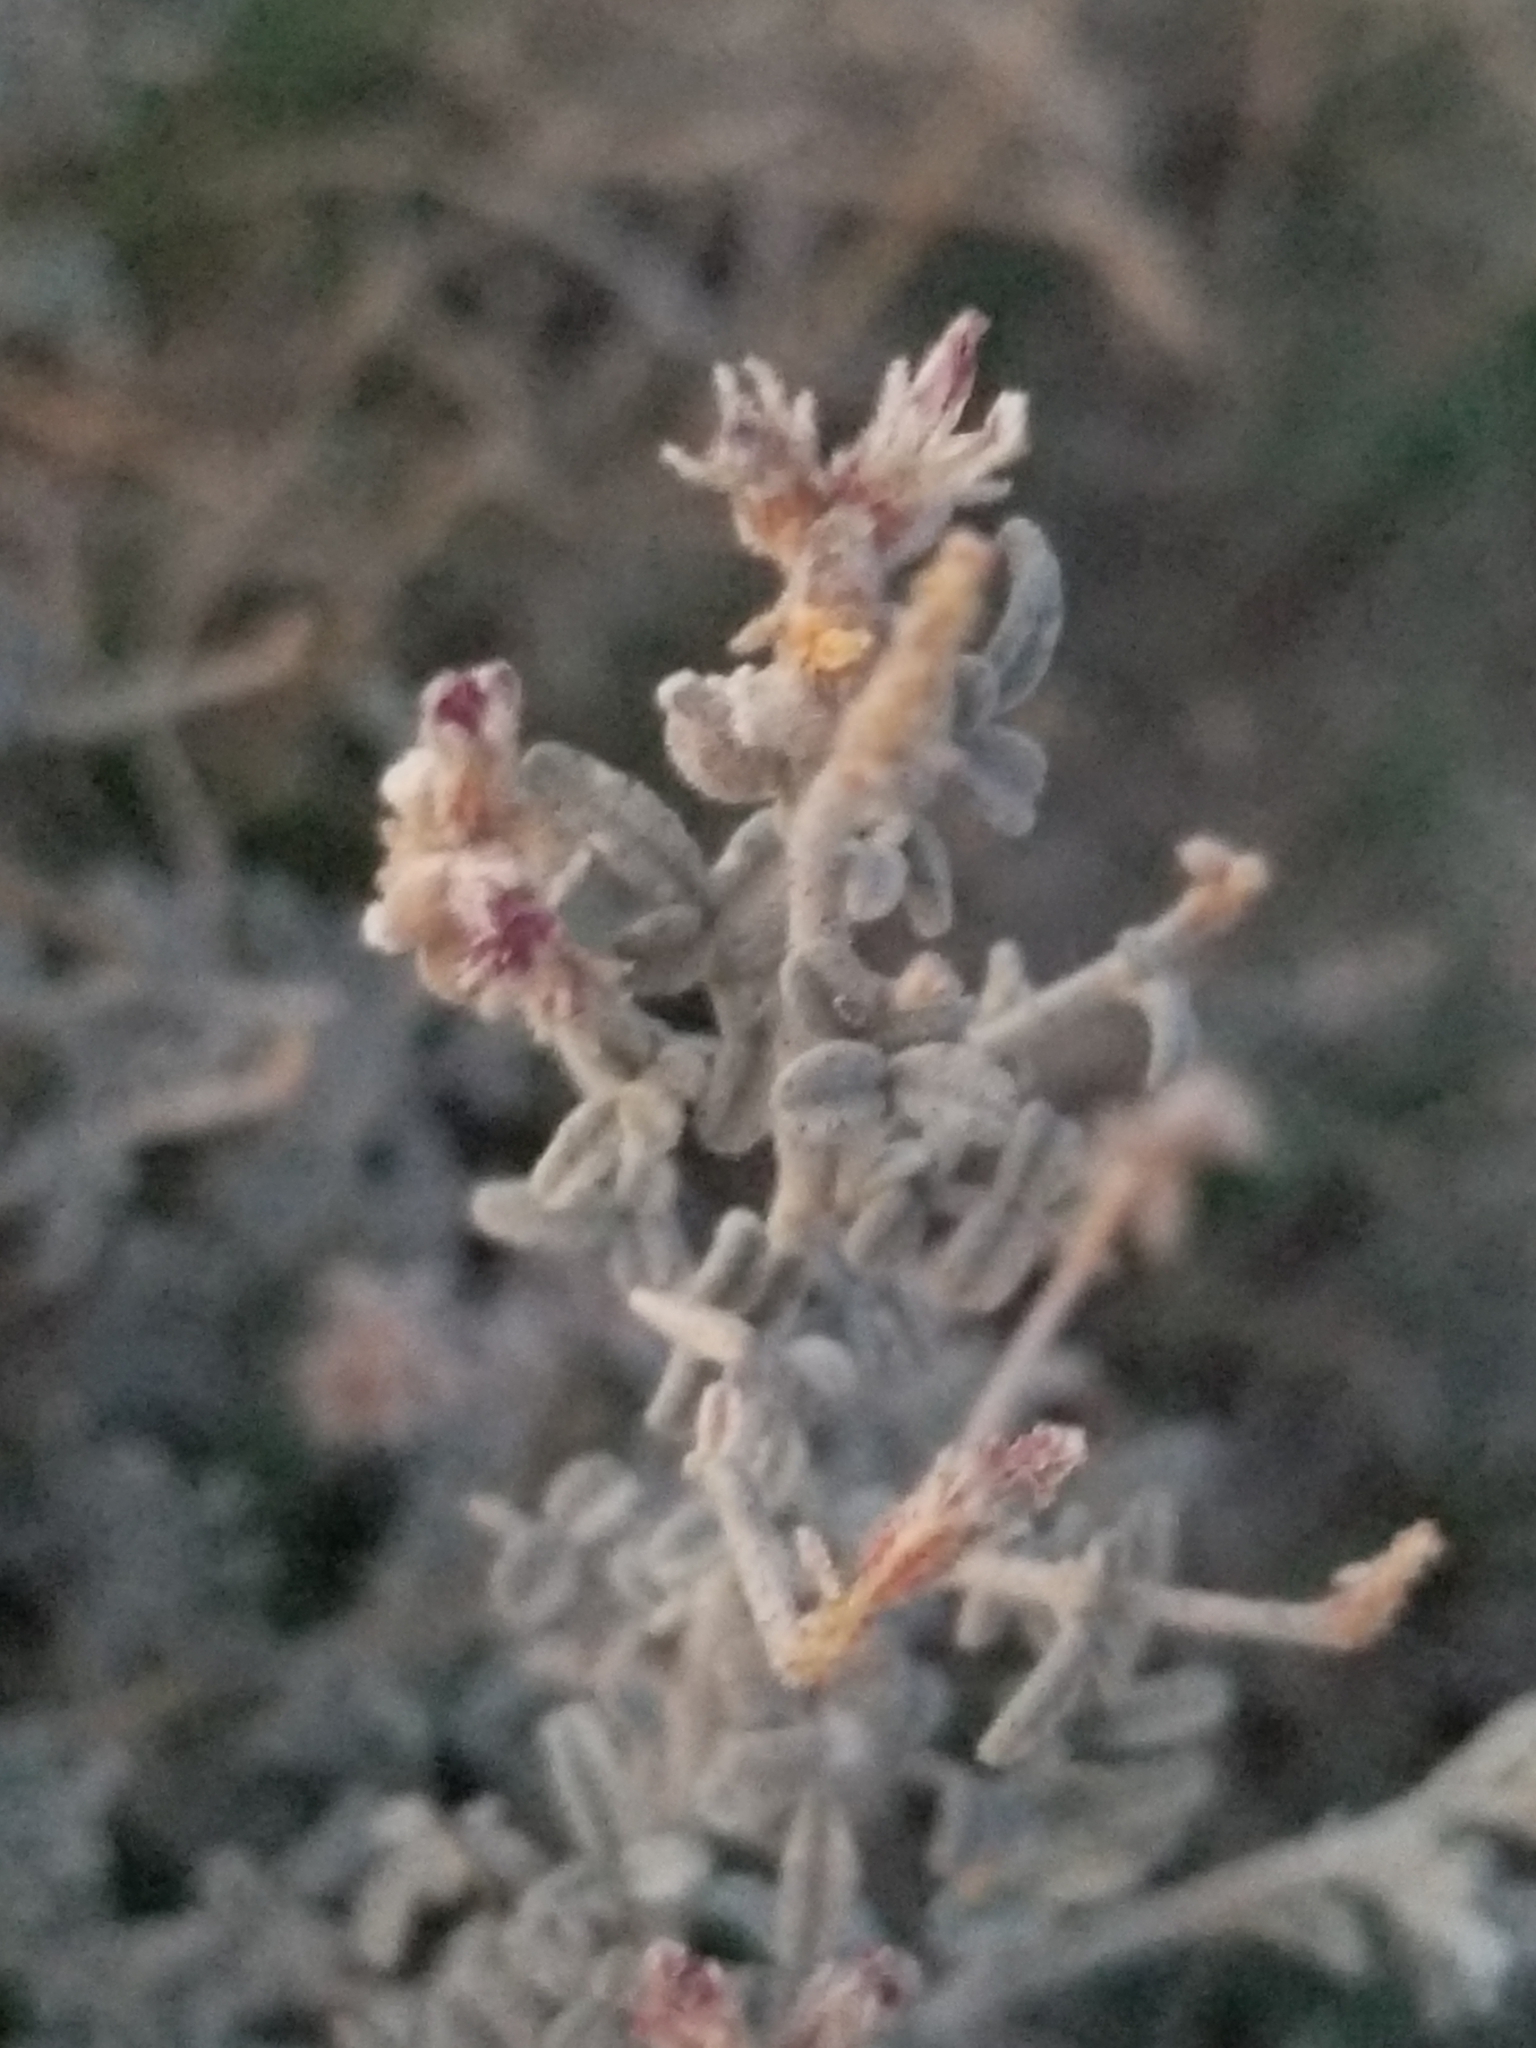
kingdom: Plantae
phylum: Tracheophyta
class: Magnoliopsida
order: Fabales
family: Fabaceae
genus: Psorothamnus
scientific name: Psorothamnus emoryi
